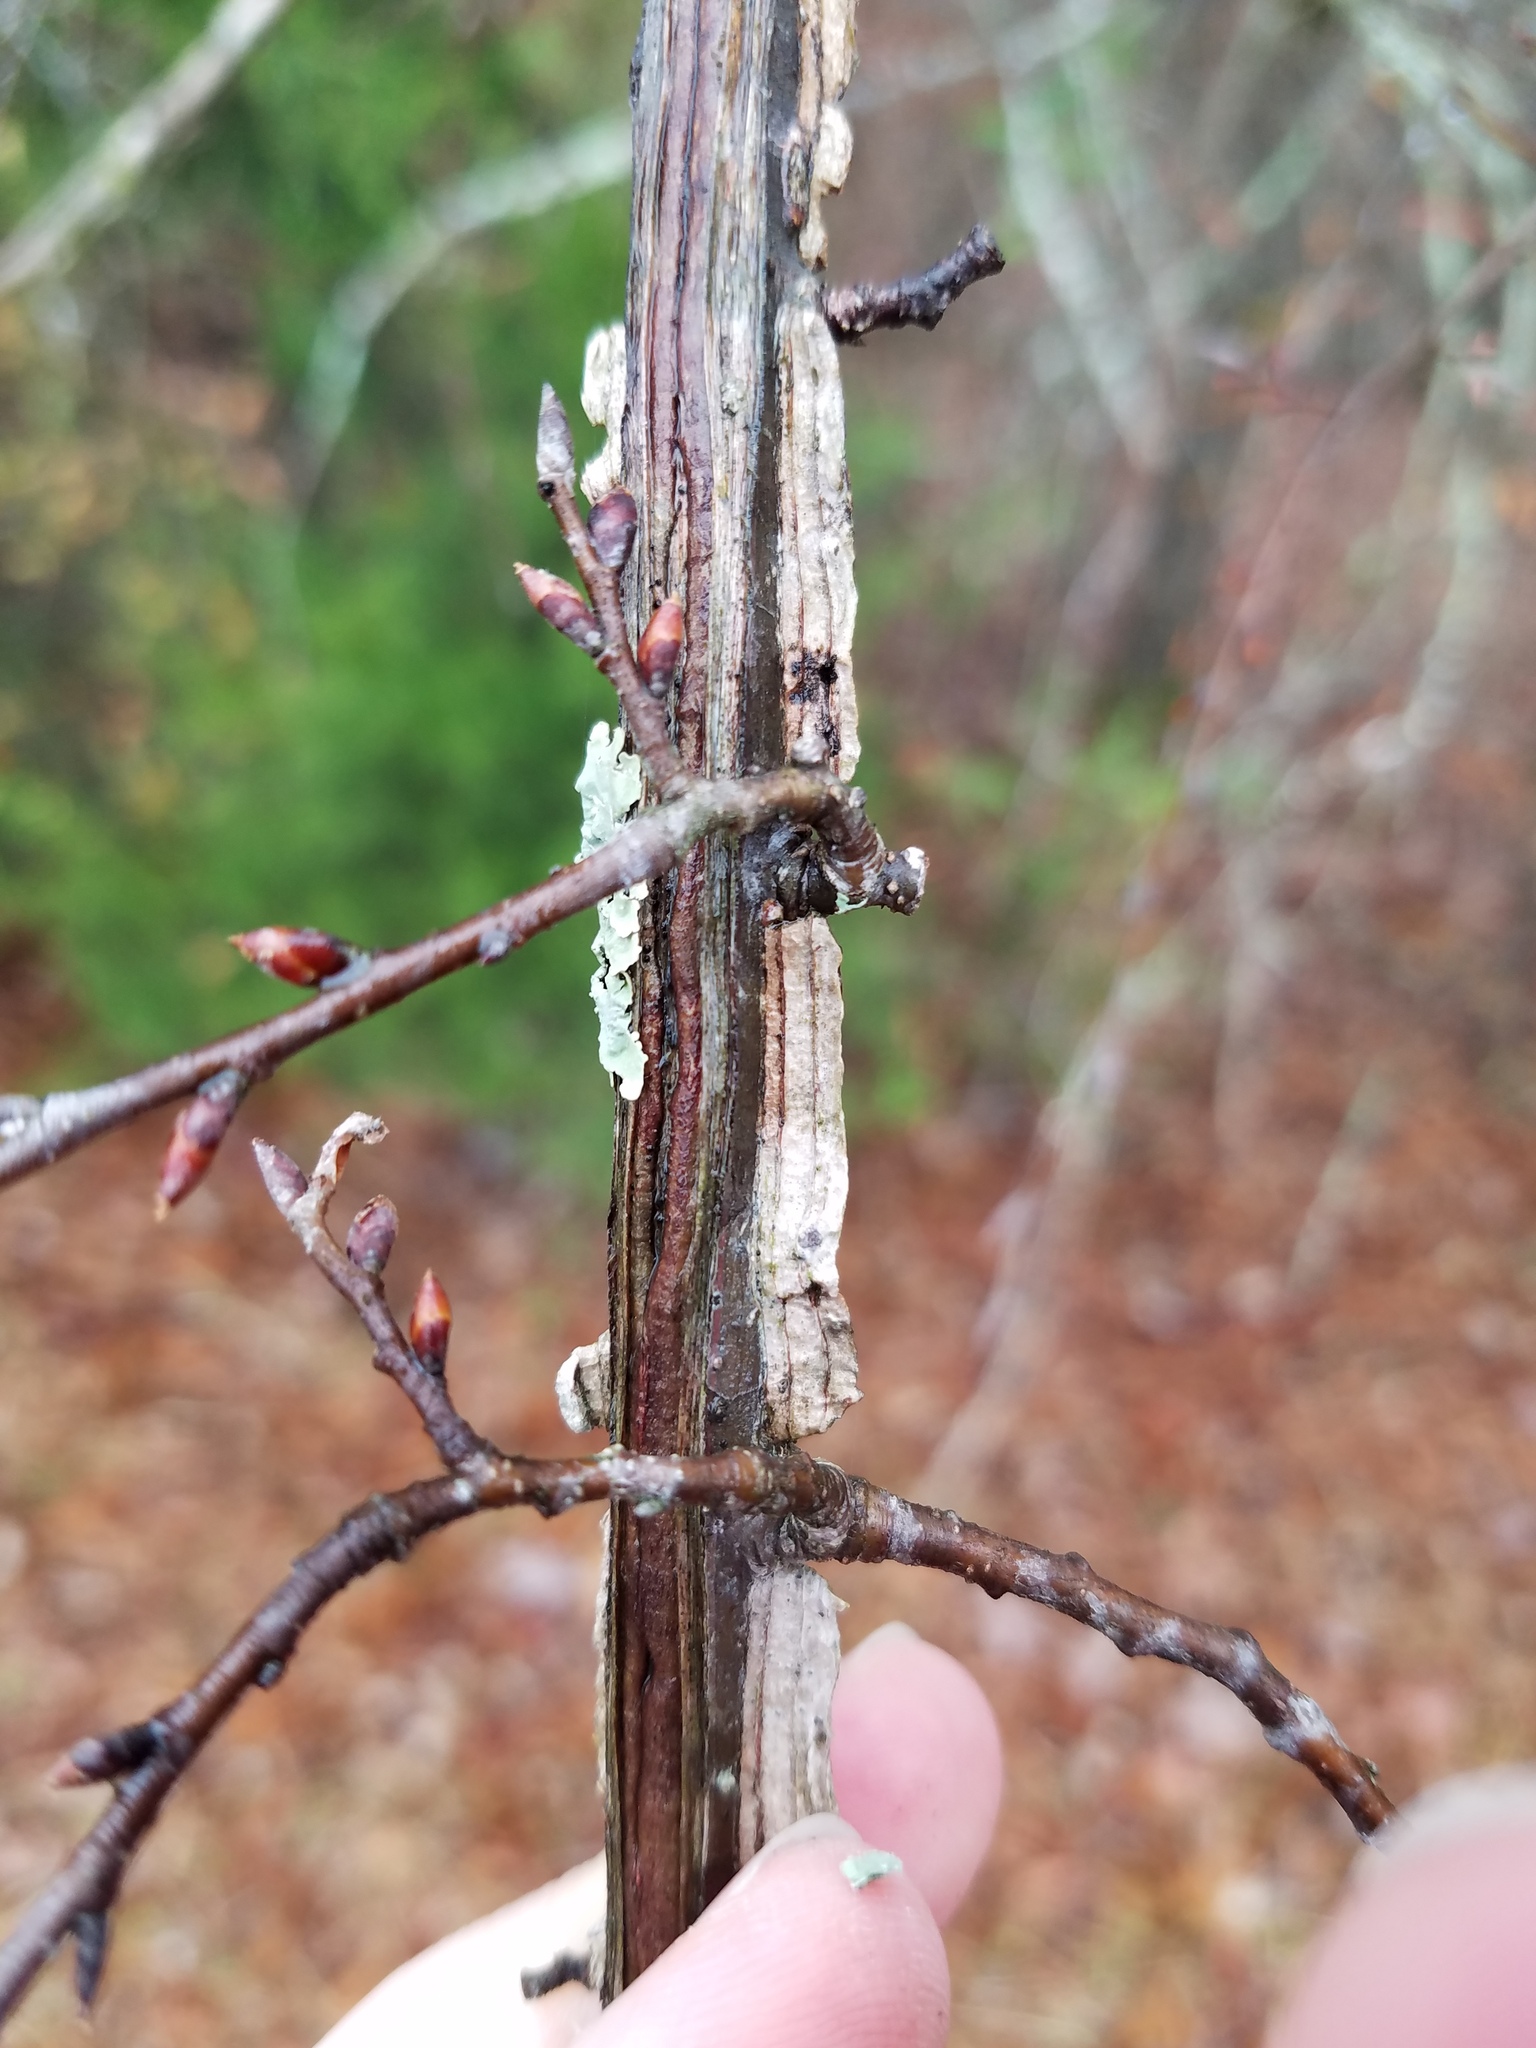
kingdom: Plantae
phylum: Tracheophyta
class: Magnoliopsida
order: Rosales
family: Ulmaceae
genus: Ulmus
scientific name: Ulmus alata
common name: Winged elm
